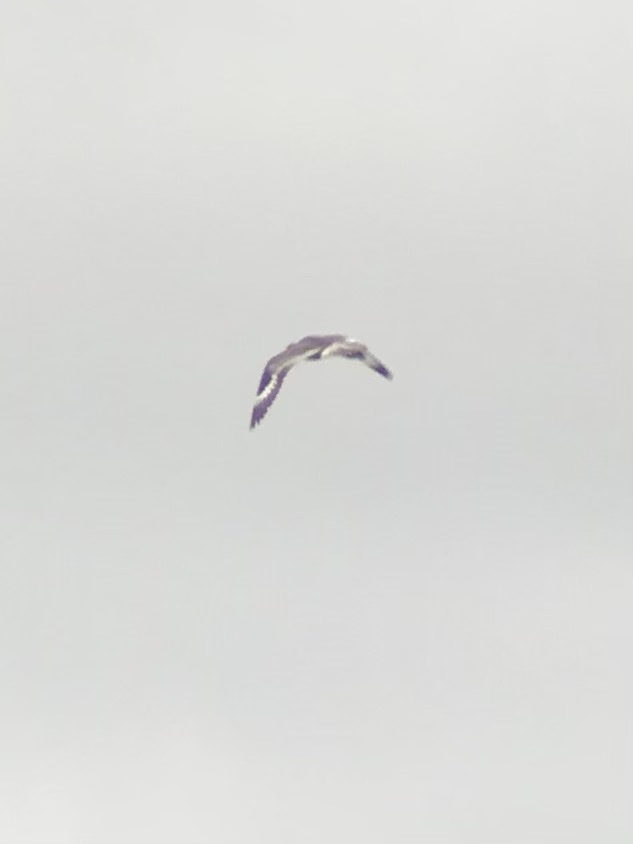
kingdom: Animalia
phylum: Chordata
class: Aves
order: Charadriiformes
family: Scolopacidae
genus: Tringa
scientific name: Tringa semipalmata
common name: Willet
